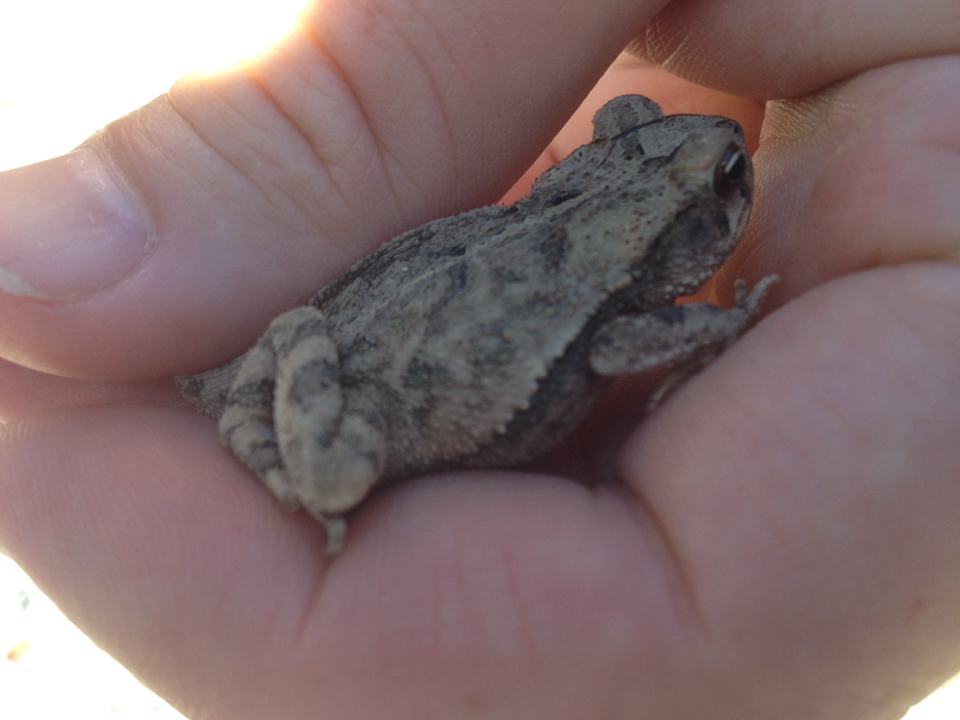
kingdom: Animalia
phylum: Chordata
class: Amphibia
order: Anura
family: Bufonidae
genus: Incilius
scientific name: Incilius nebulifer
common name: Gulf coast toad
